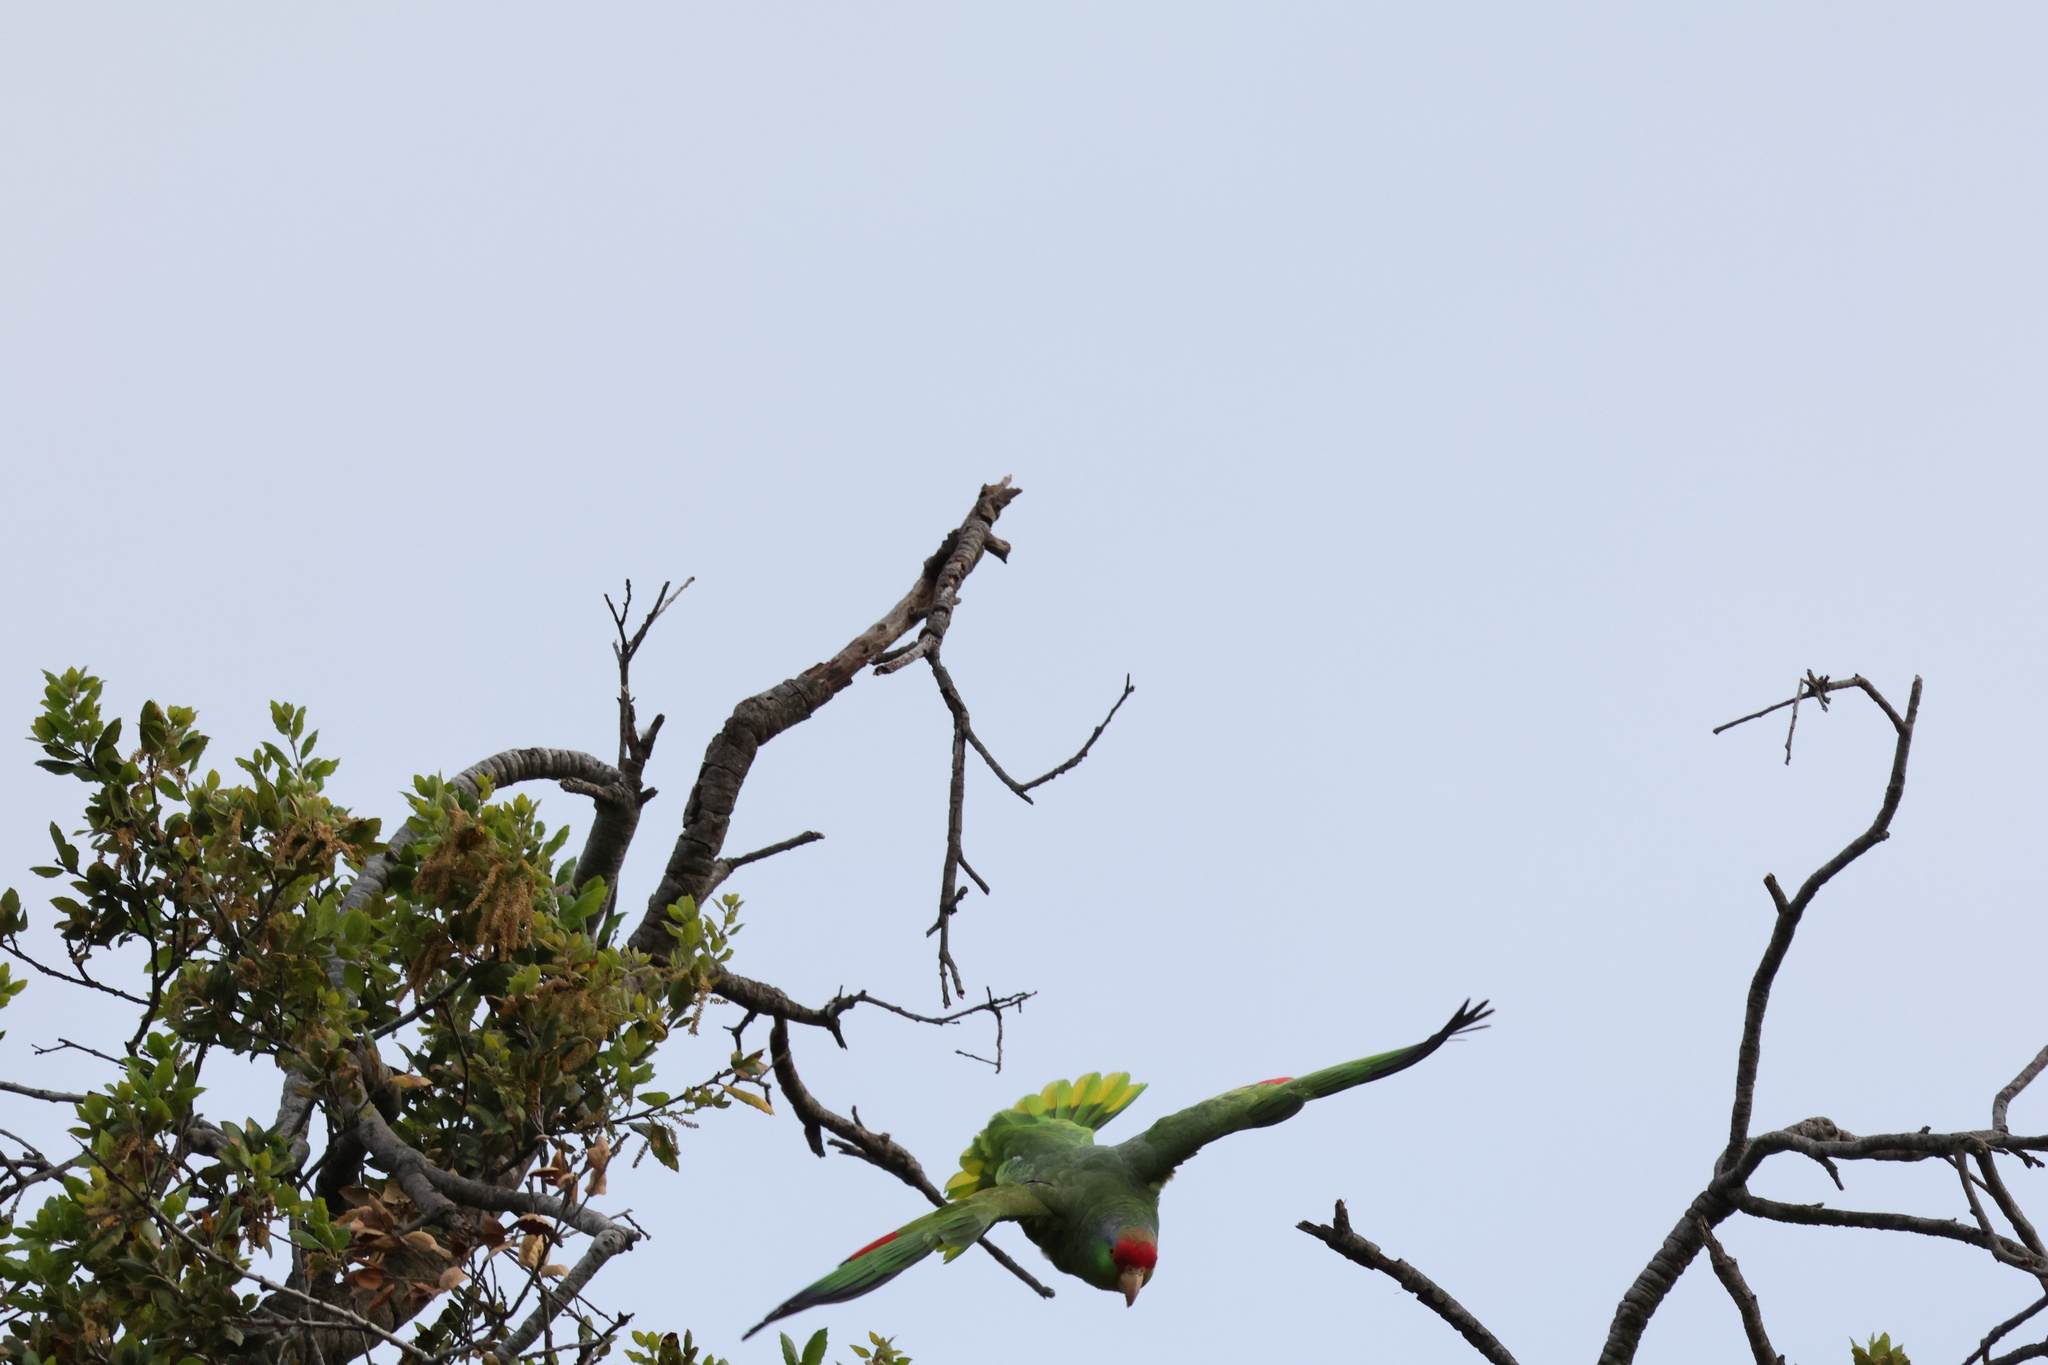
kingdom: Animalia
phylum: Chordata
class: Aves
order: Psittaciformes
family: Psittacidae
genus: Amazona
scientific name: Amazona viridigenalis
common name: Red-crowned amazon
